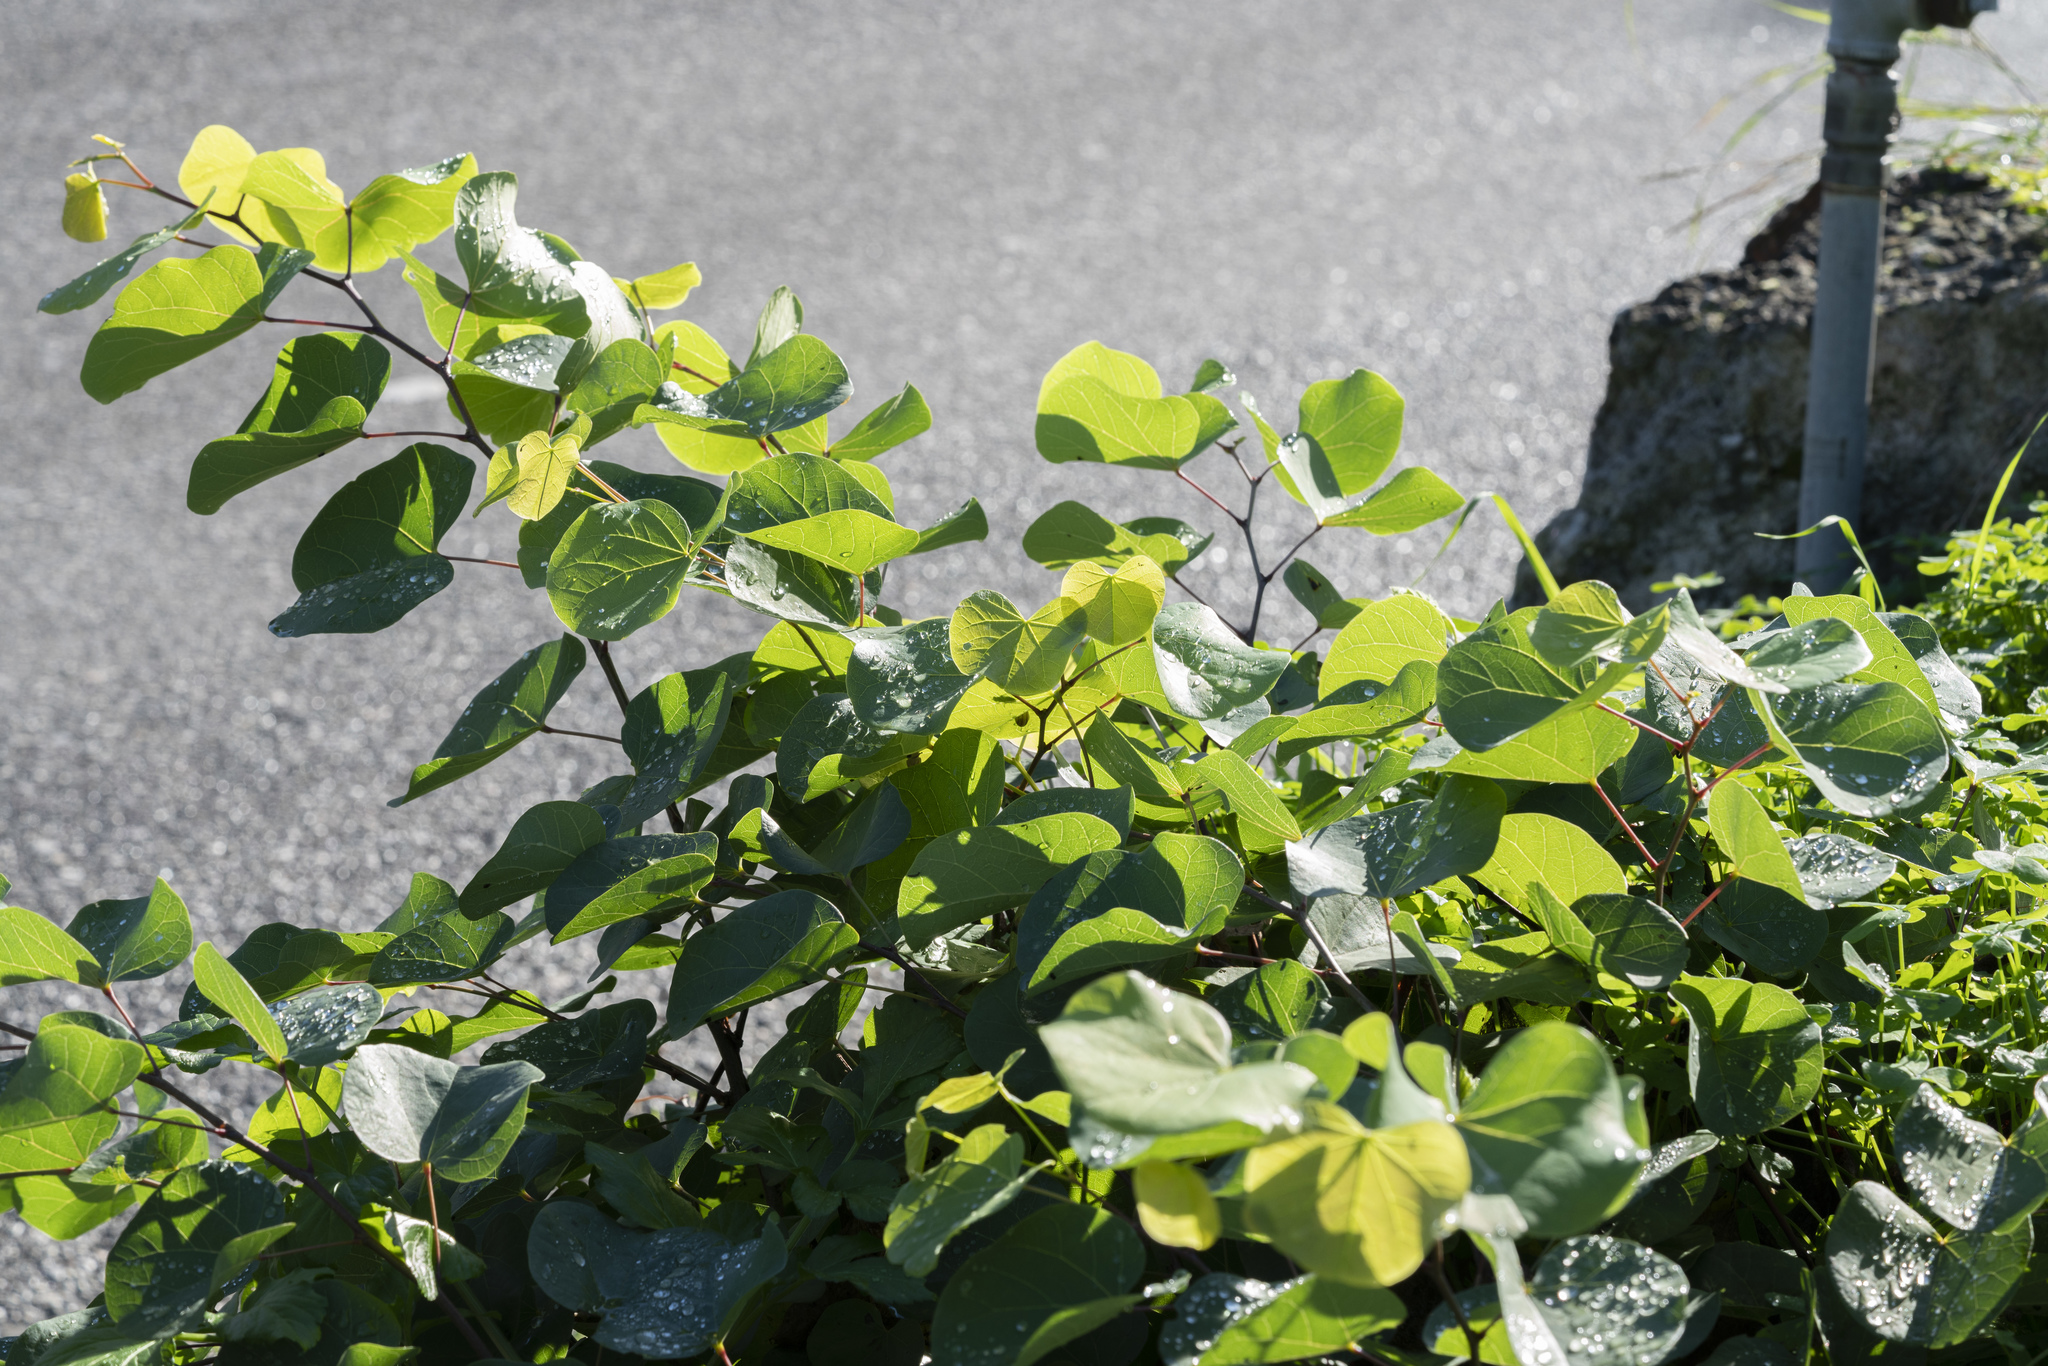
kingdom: Plantae
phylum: Tracheophyta
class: Magnoliopsida
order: Fabales
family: Fabaceae
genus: Cercis
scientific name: Cercis siliquastrum
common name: Judas tree
